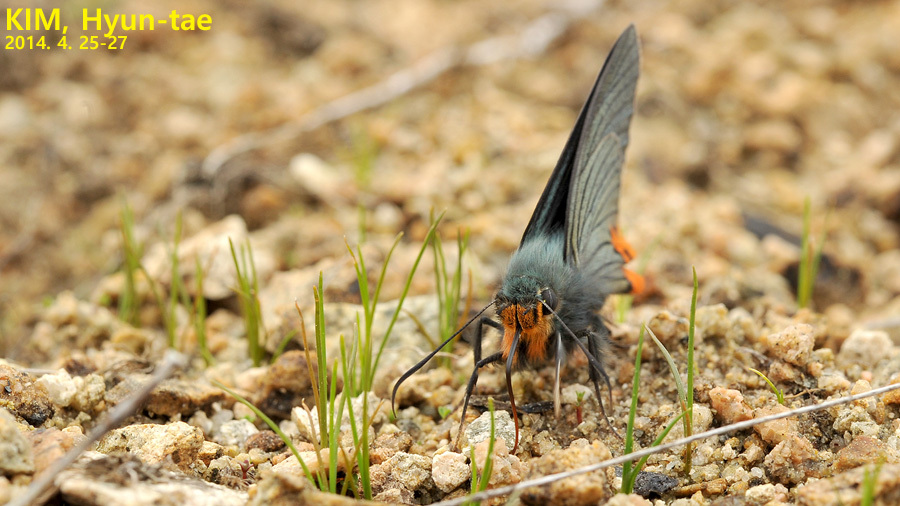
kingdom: Animalia
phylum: Arthropoda
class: Insecta
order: Lepidoptera
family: Hesperiidae
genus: Choaspes
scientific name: Choaspes benjaminii
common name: Indian awlking
